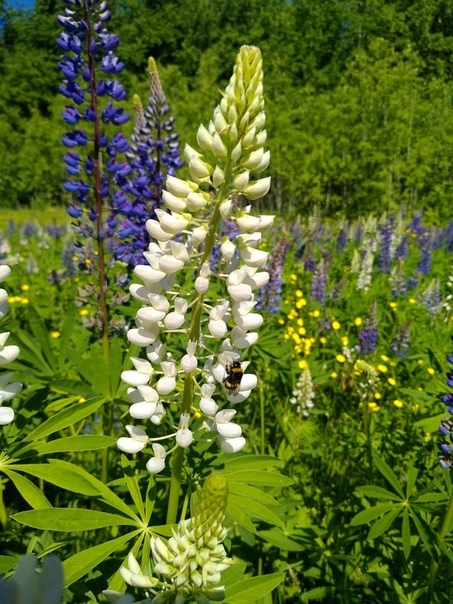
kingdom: Plantae
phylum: Tracheophyta
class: Magnoliopsida
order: Fabales
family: Fabaceae
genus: Lupinus
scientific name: Lupinus polyphyllus
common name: Garden lupin
